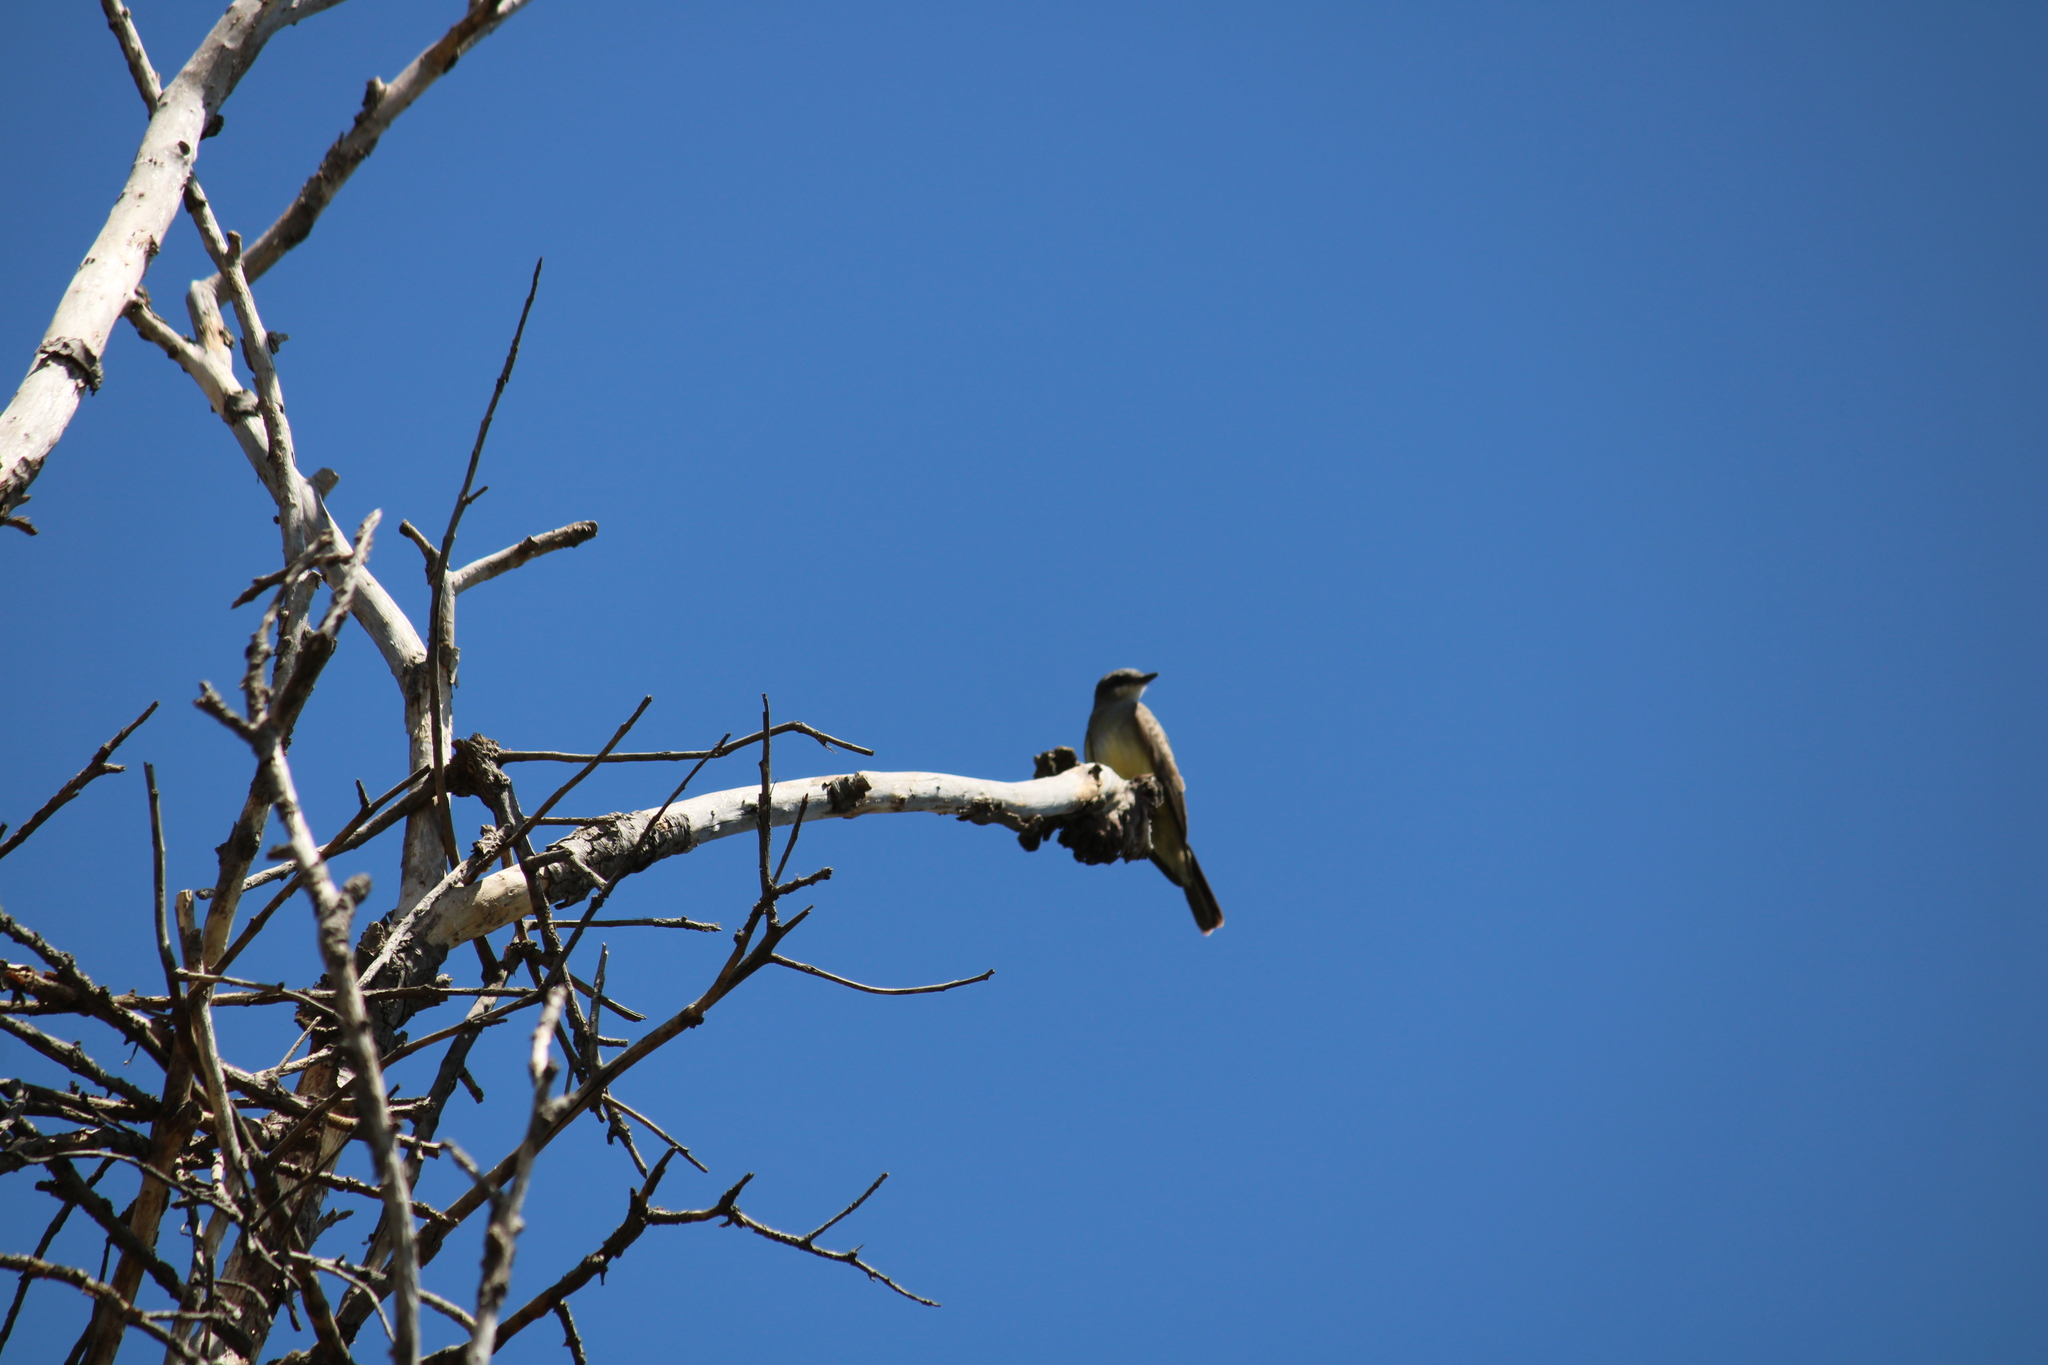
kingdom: Animalia
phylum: Chordata
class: Aves
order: Passeriformes
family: Tyrannidae
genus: Tyrannus
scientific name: Tyrannus vociferans
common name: Cassin's kingbird
